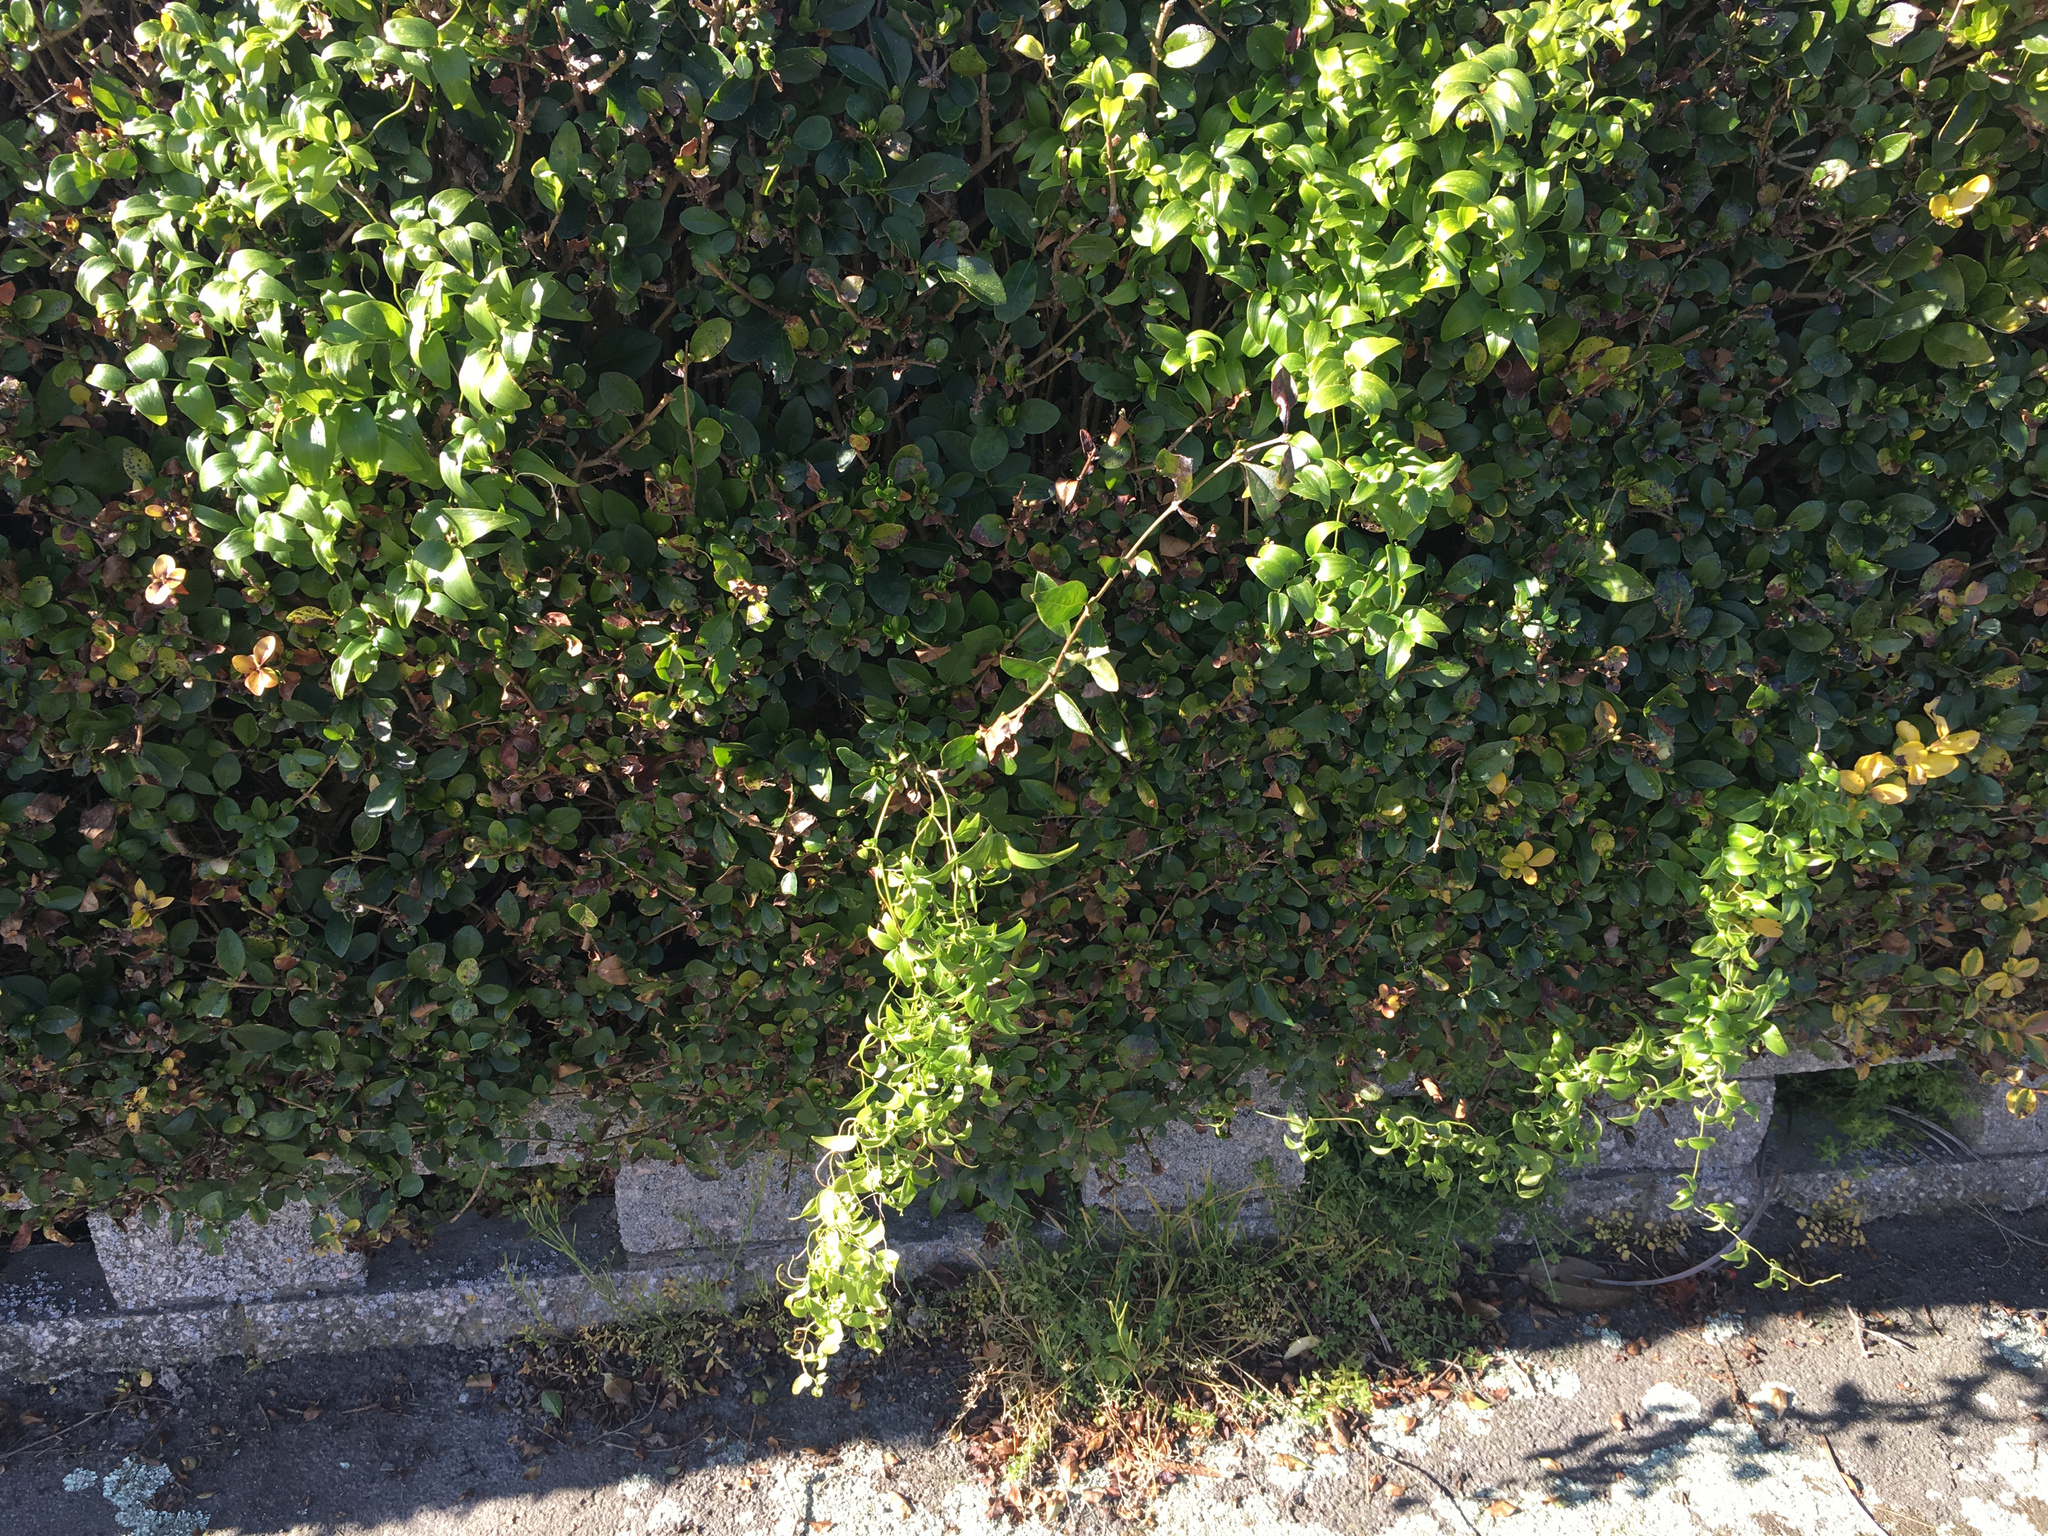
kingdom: Plantae
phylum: Tracheophyta
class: Liliopsida
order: Asparagales
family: Asparagaceae
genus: Asparagus
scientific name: Asparagus asparagoides
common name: African asparagus fern
